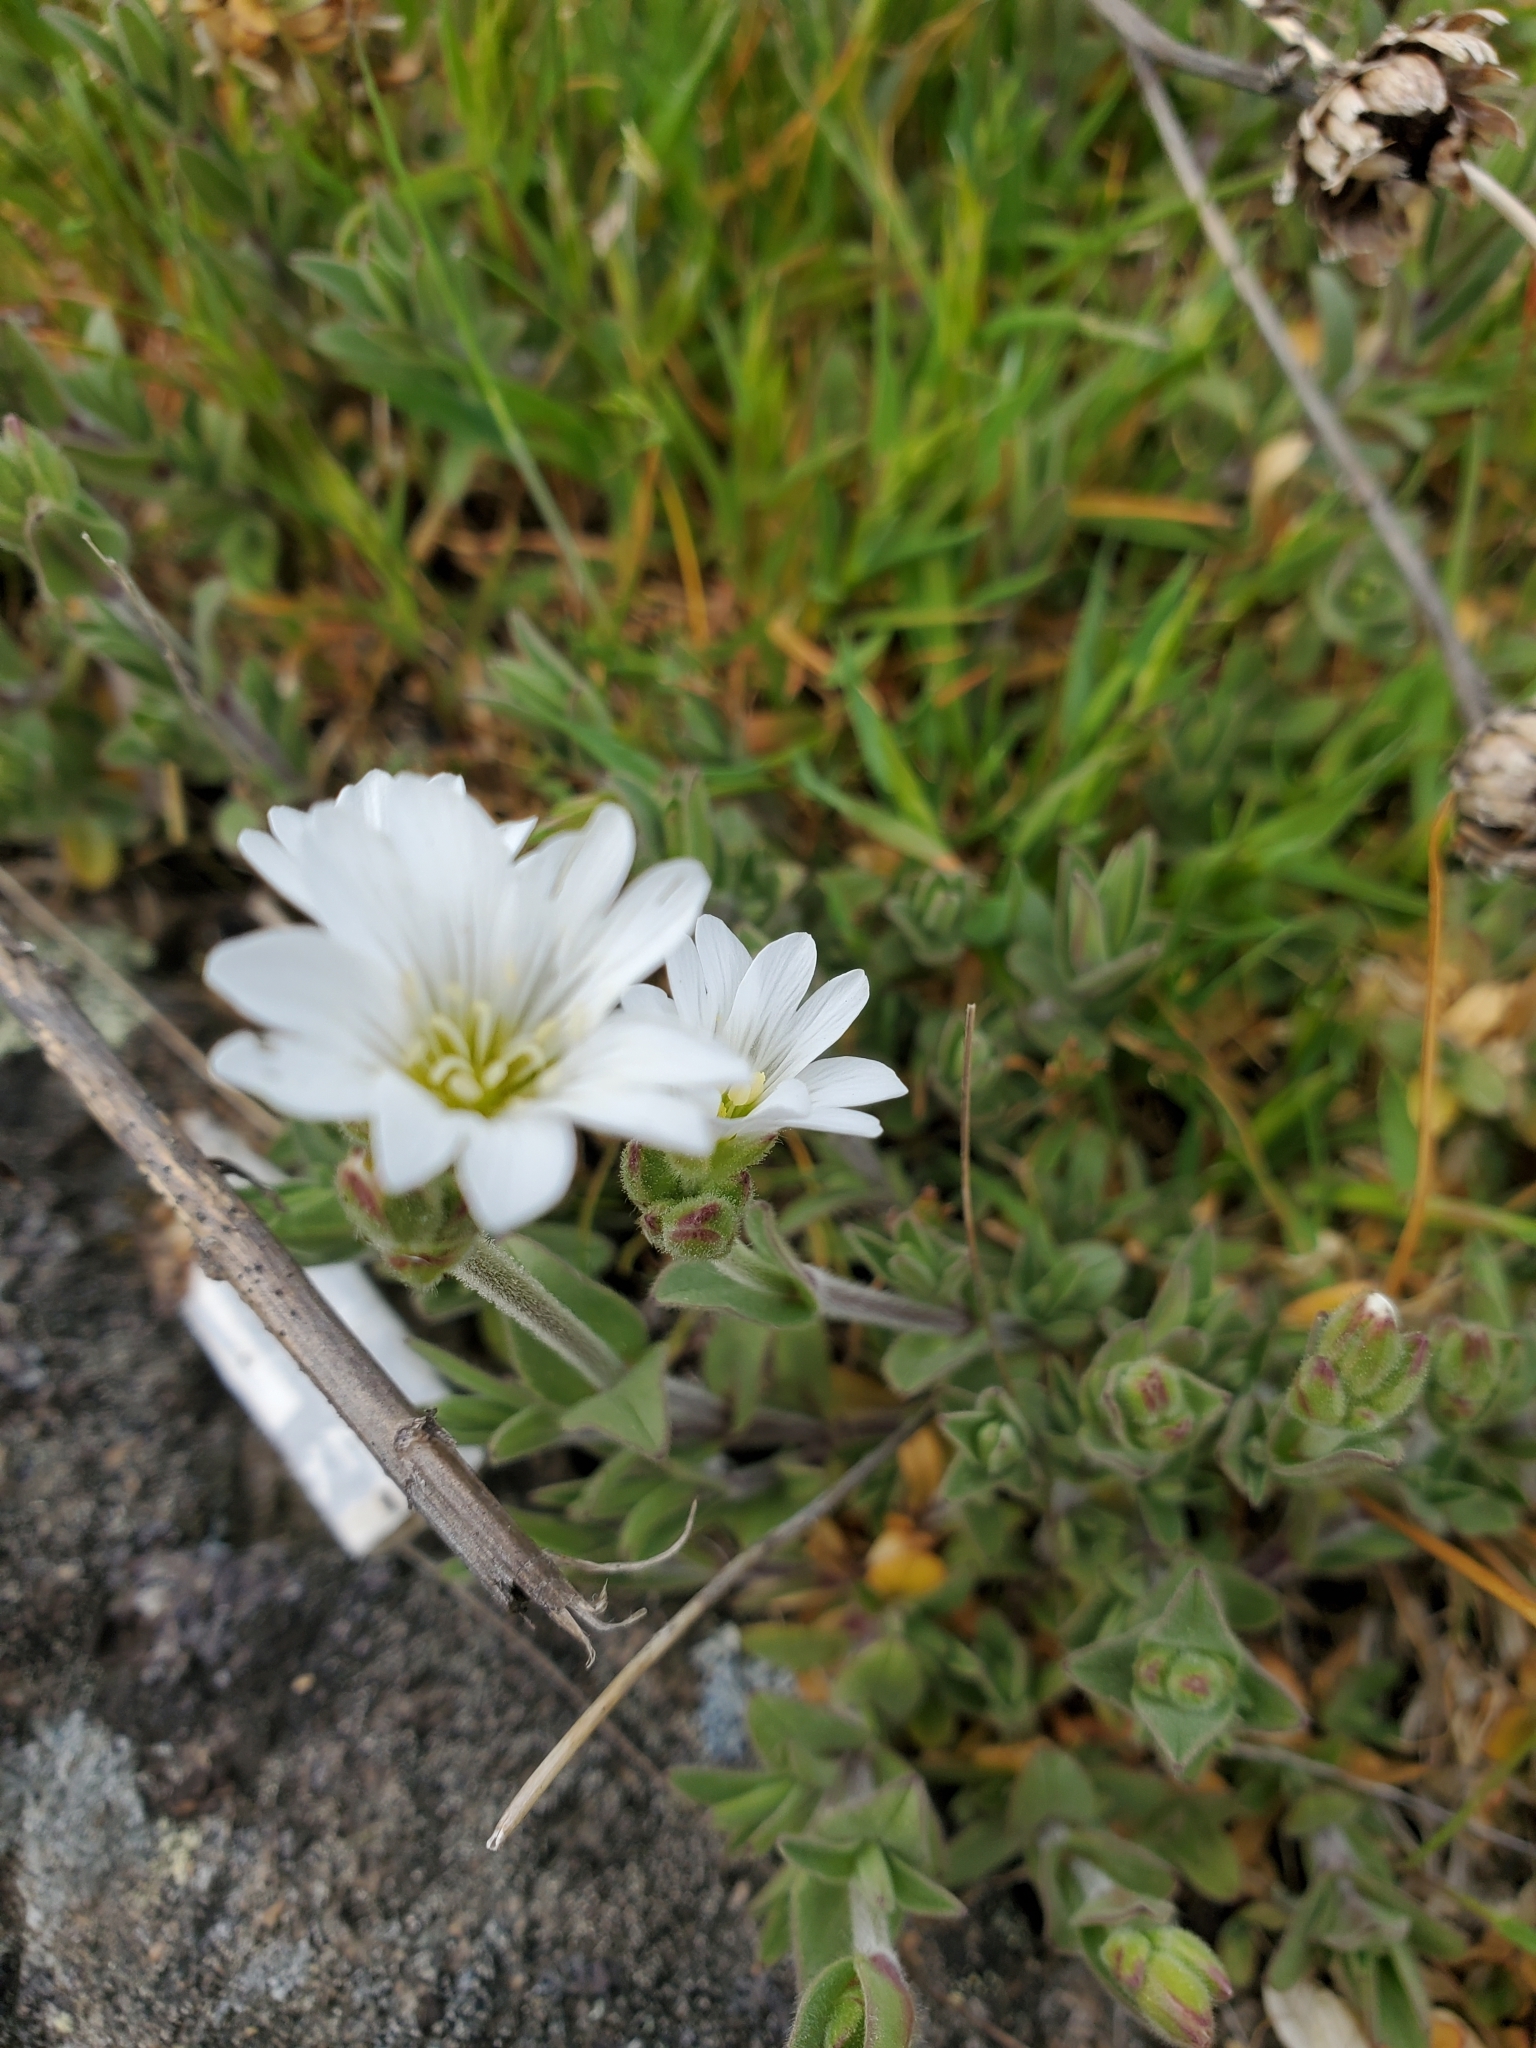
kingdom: Plantae
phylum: Tracheophyta
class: Magnoliopsida
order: Caryophyllales
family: Caryophyllaceae
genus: Cerastium
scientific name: Cerastium arvense
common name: Field mouse-ear
